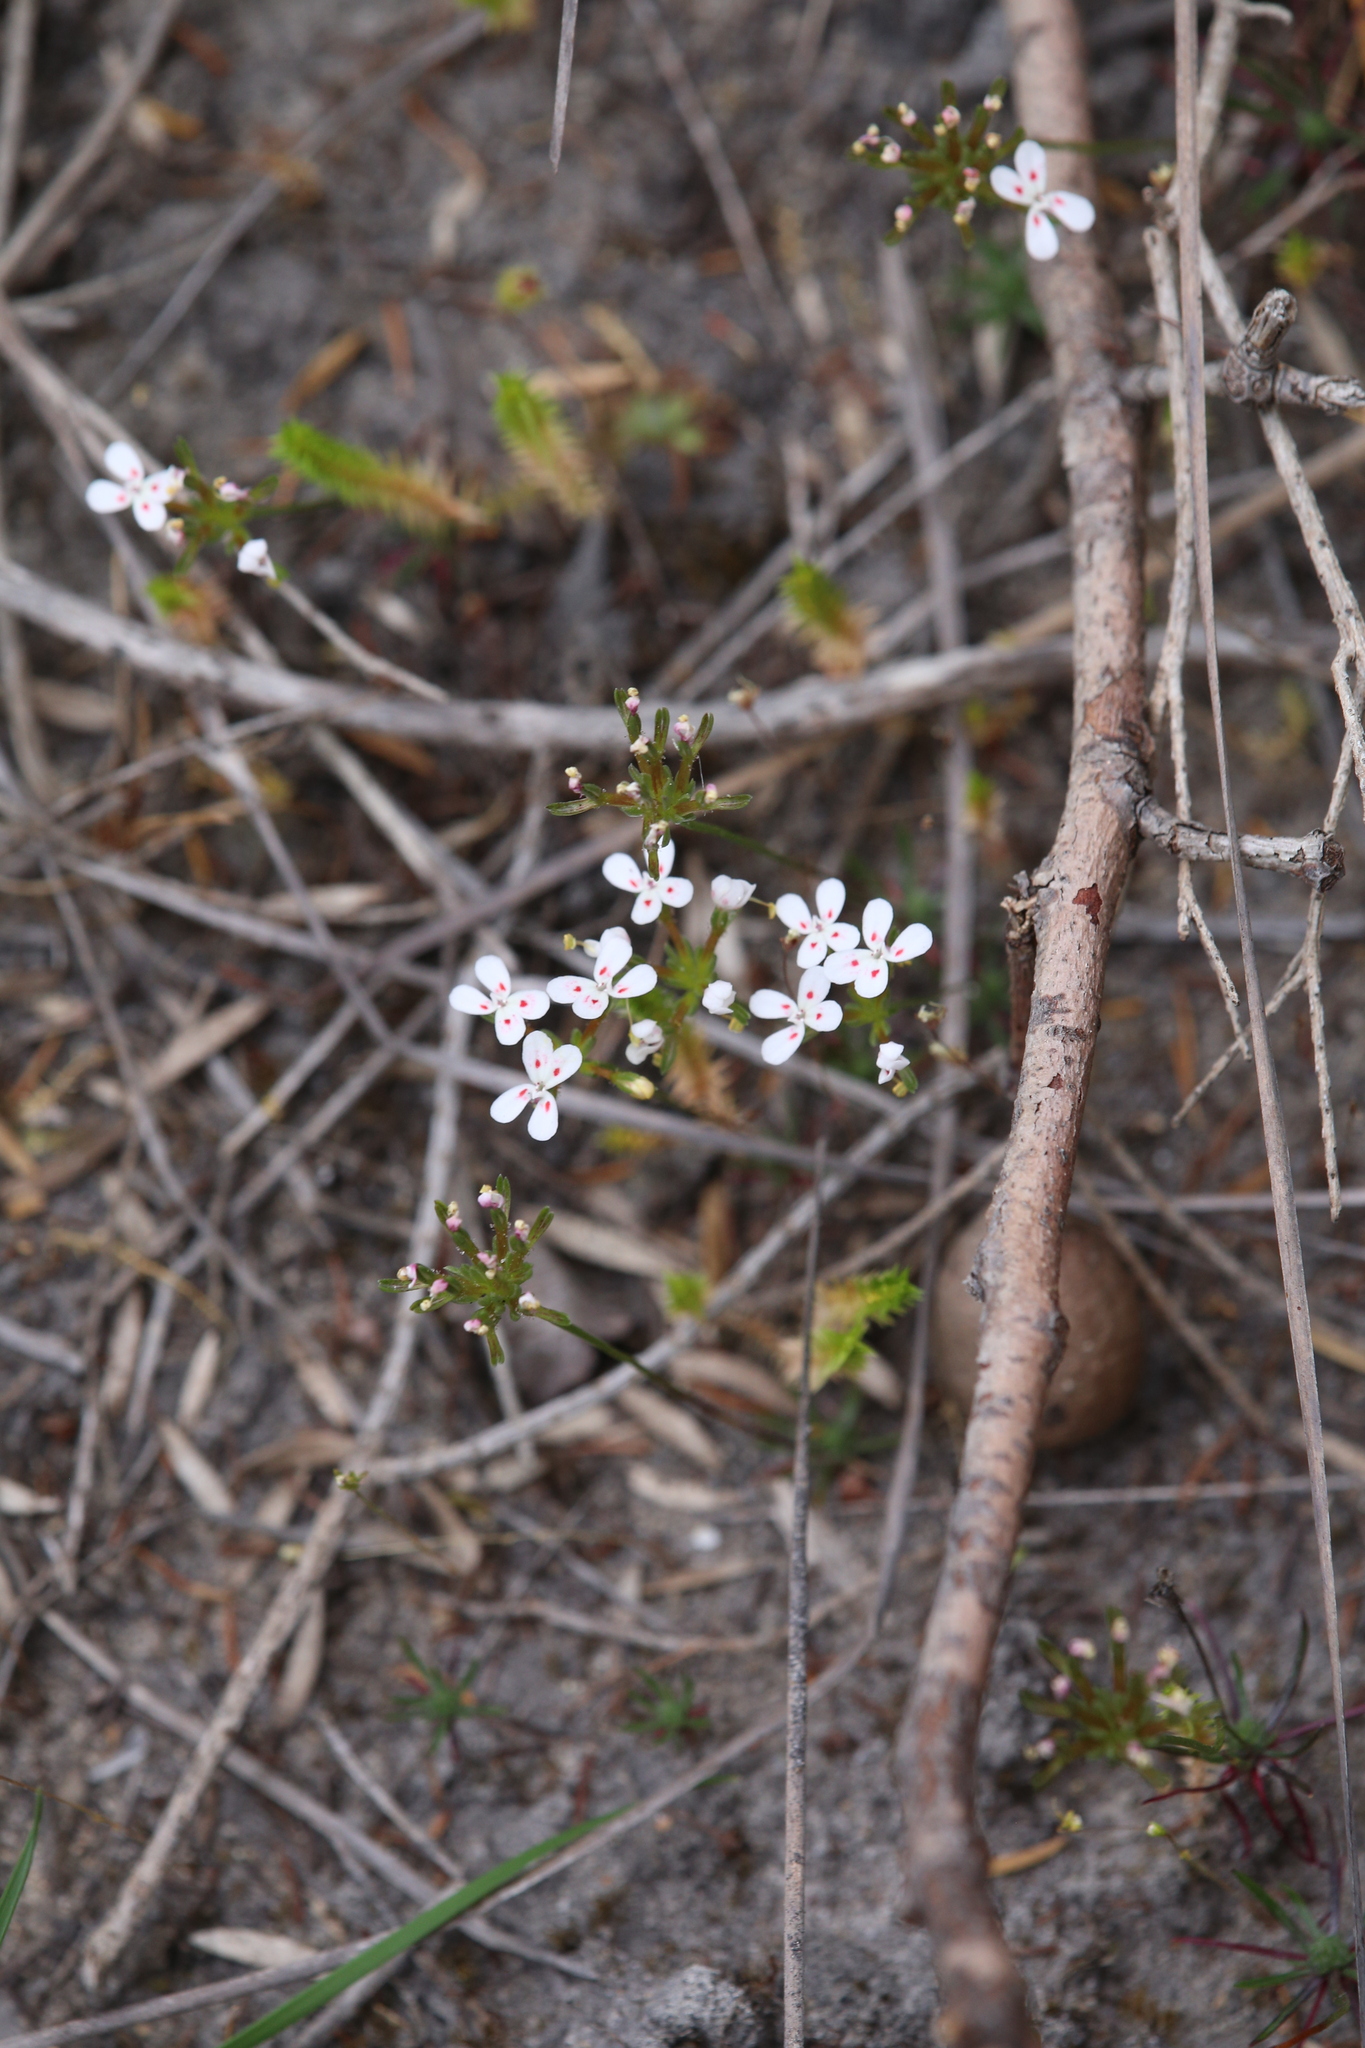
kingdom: Plantae
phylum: Tracheophyta
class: Magnoliopsida
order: Asterales
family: Stylidiaceae
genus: Stylidium
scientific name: Stylidium guttatum
